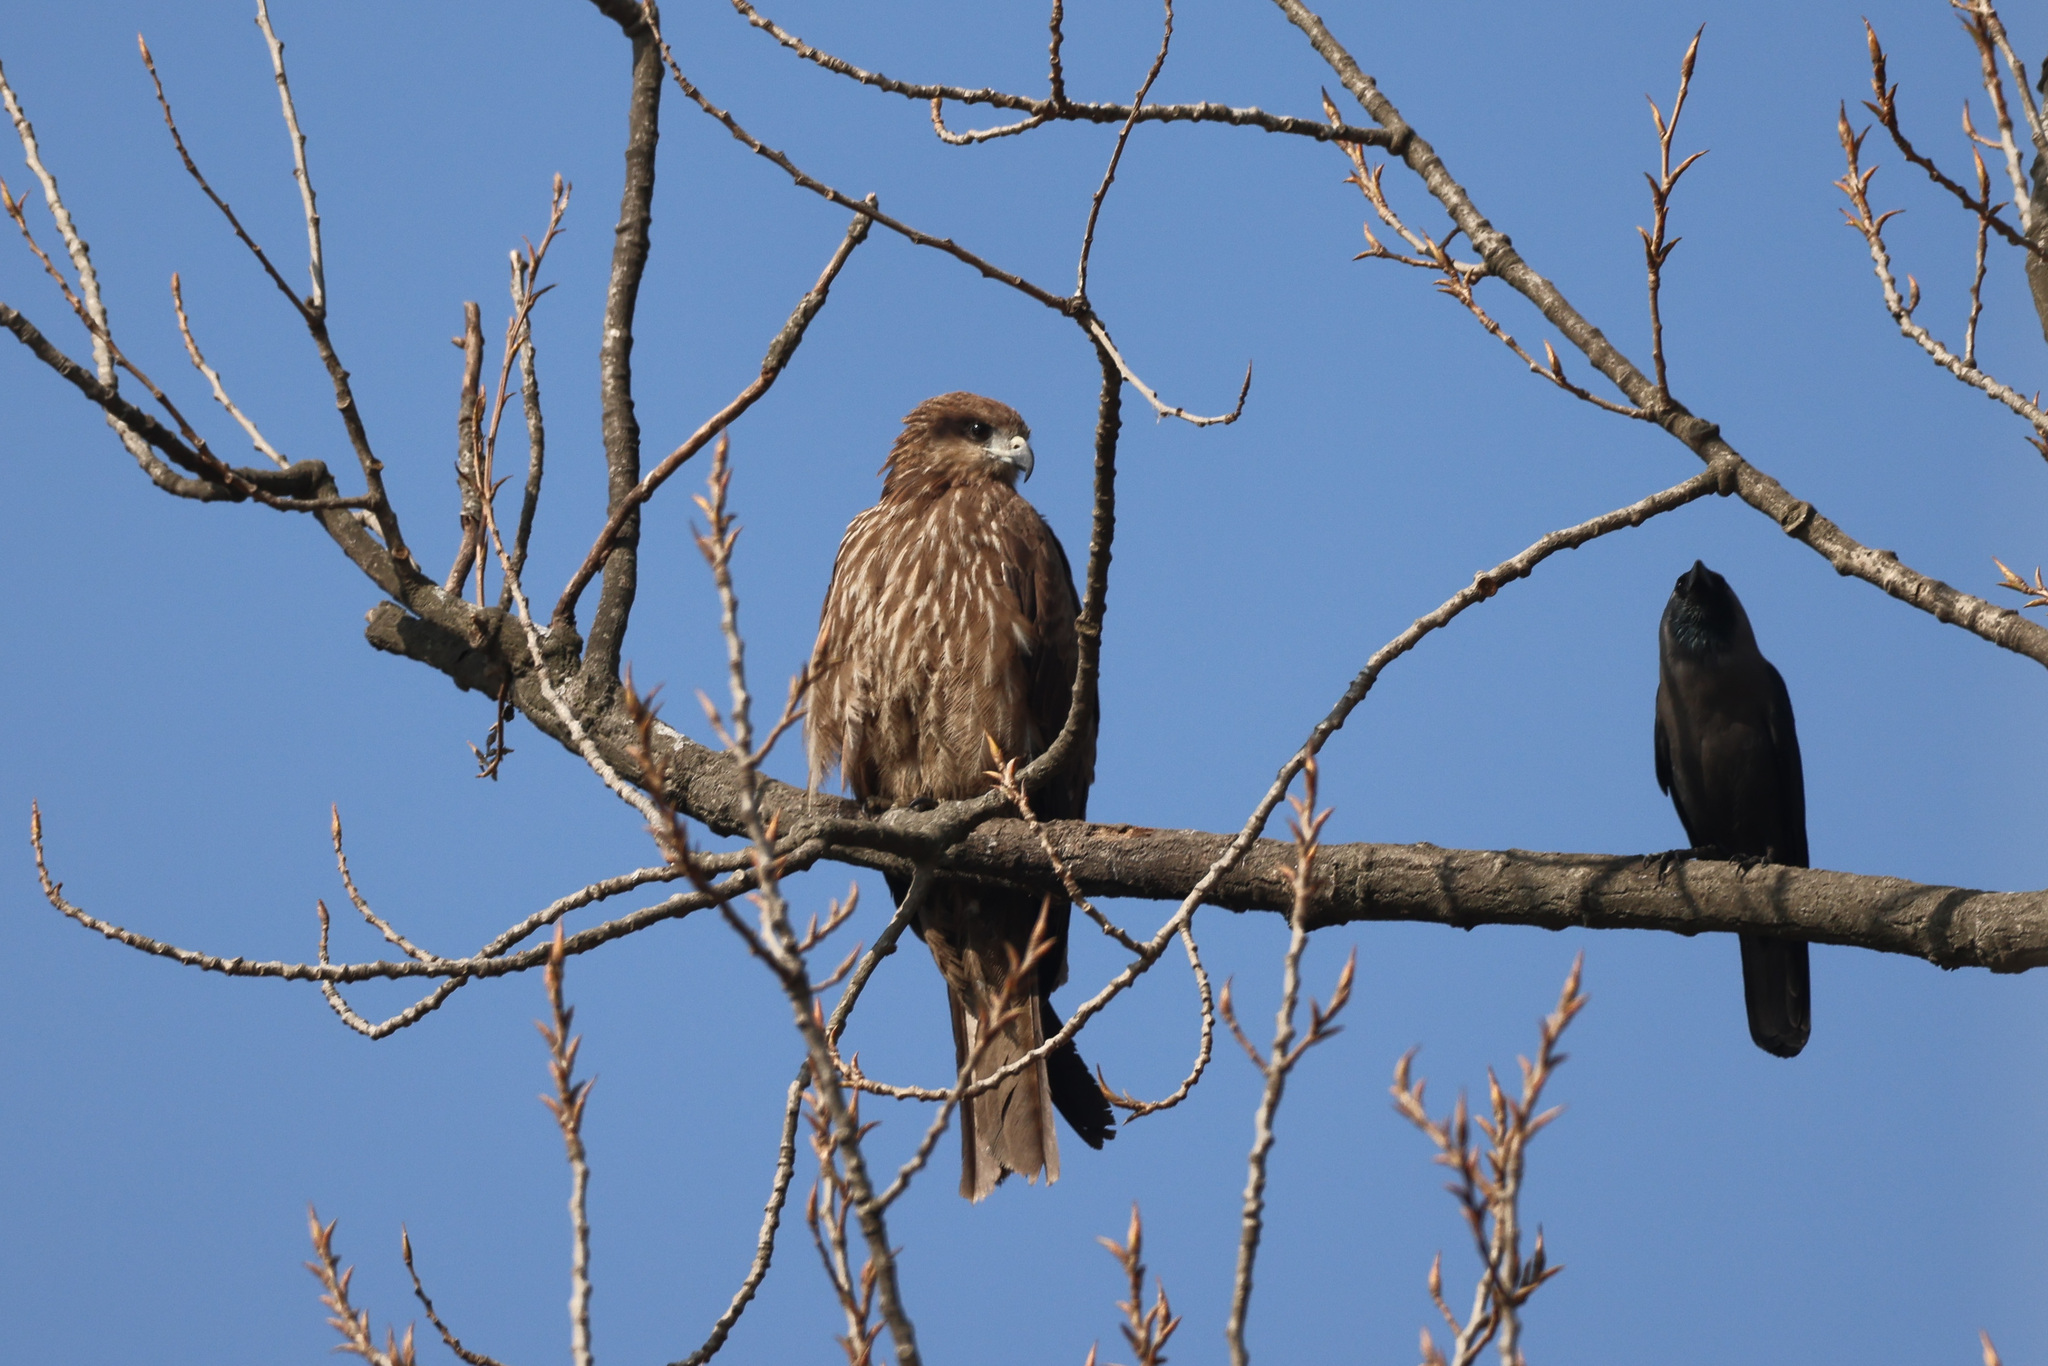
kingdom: Animalia
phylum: Chordata
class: Aves
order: Accipitriformes
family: Accipitridae
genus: Milvus
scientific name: Milvus migrans
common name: Black kite
